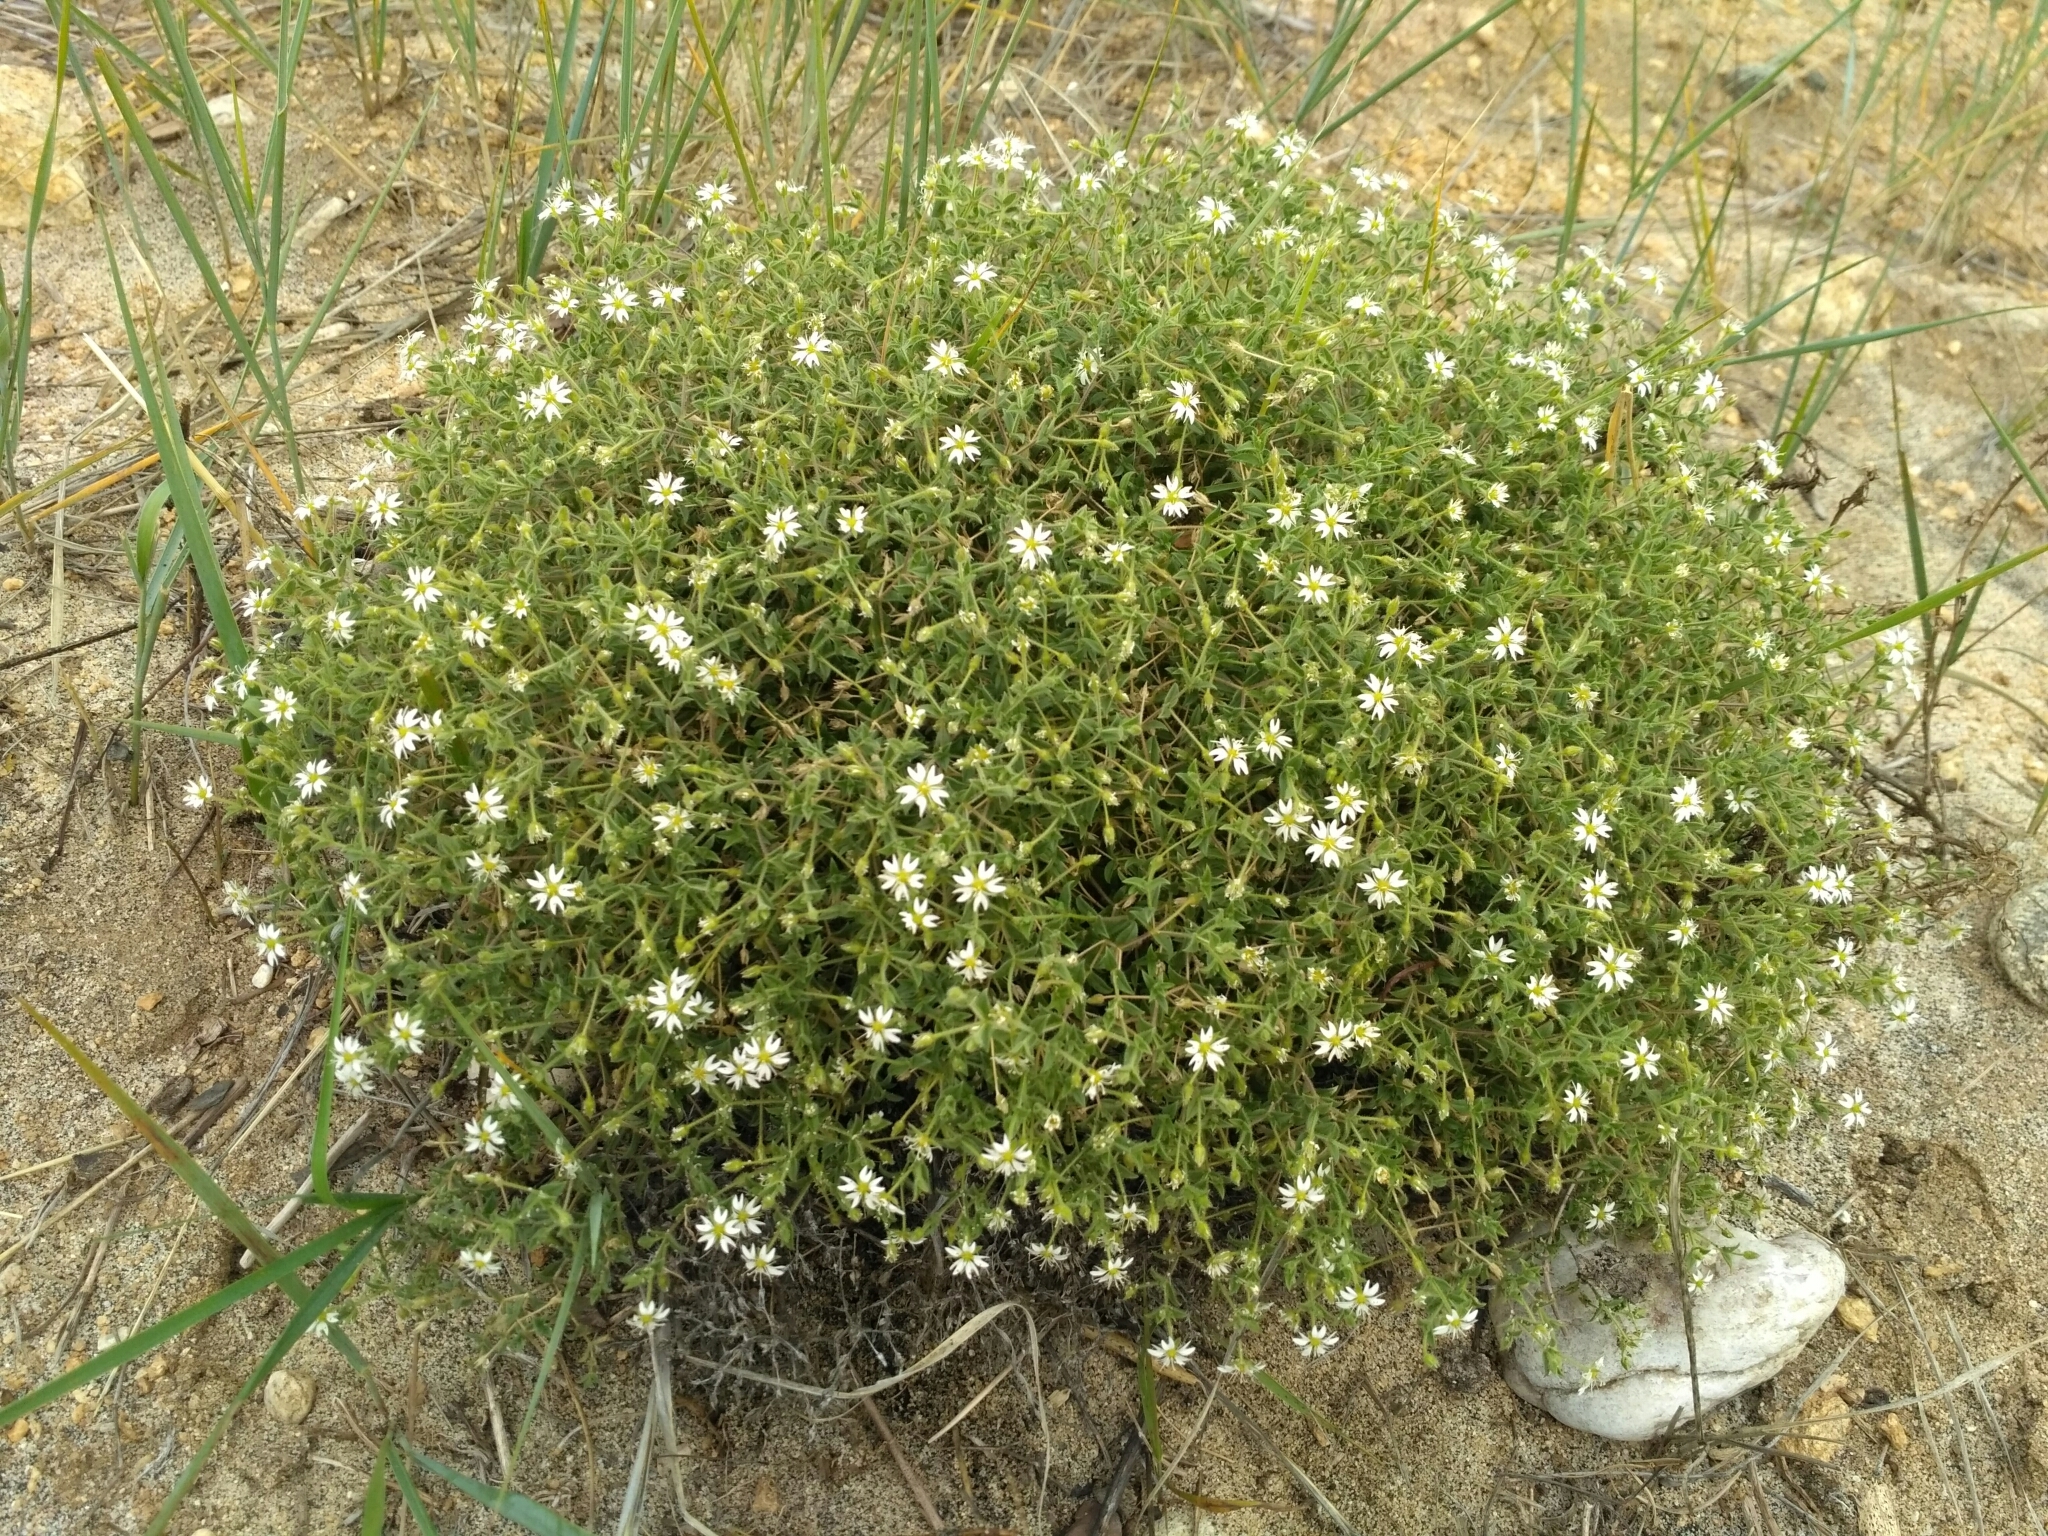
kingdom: Plantae
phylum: Tracheophyta
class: Magnoliopsida
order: Caryophyllales
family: Caryophyllaceae
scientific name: Caryophyllaceae
